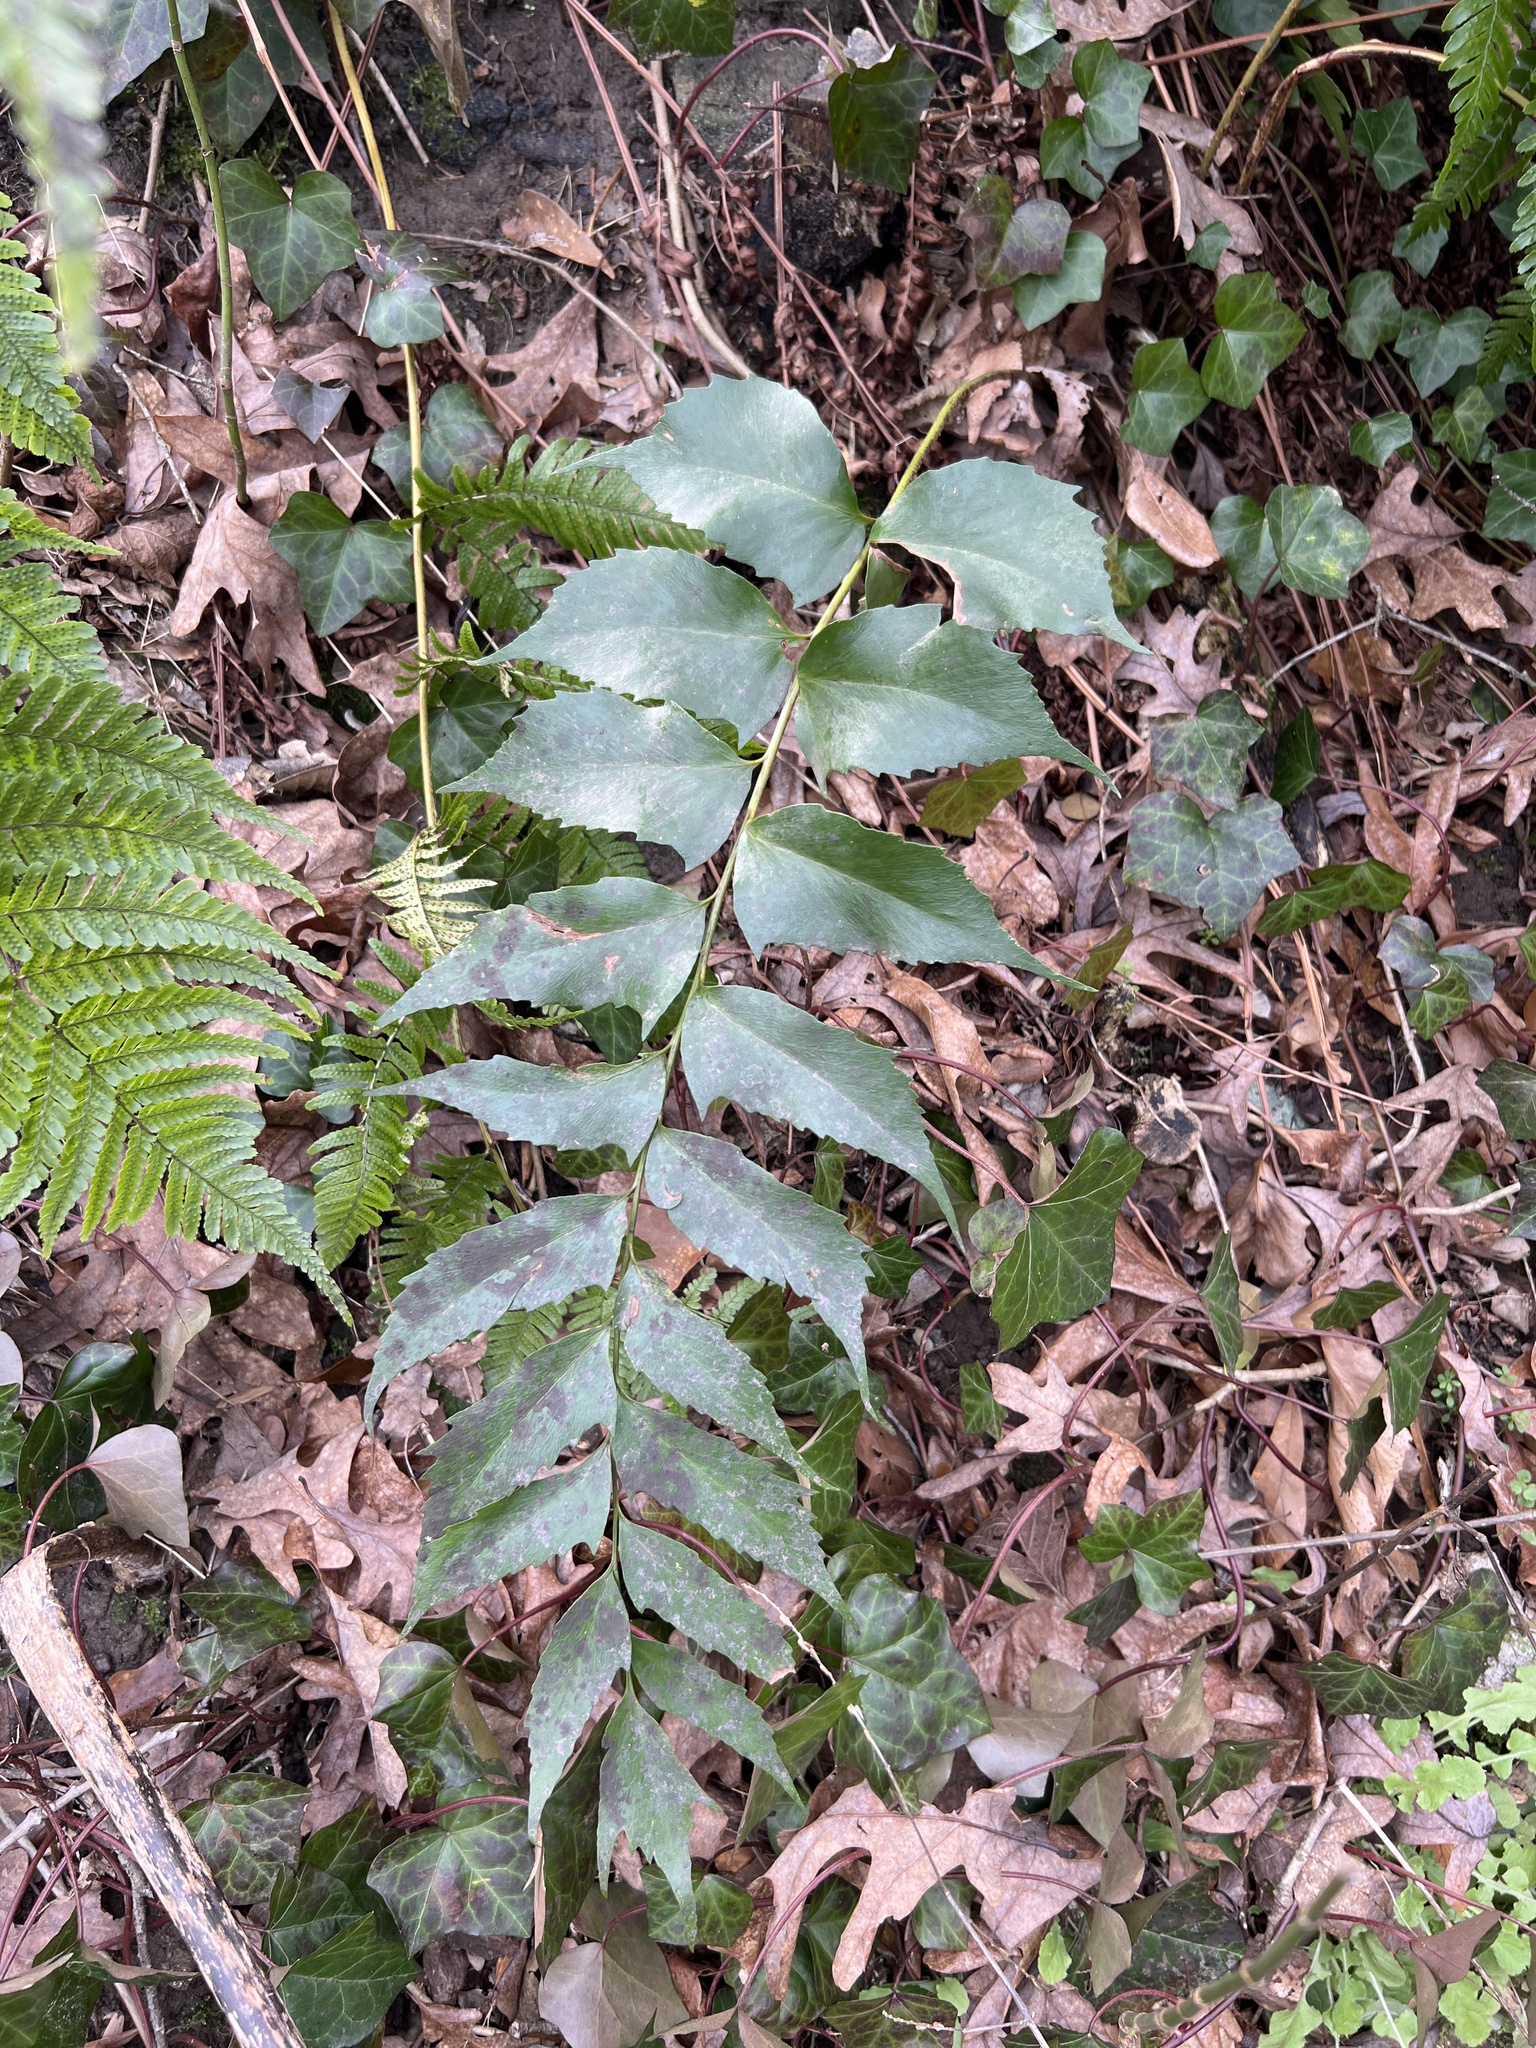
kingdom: Plantae
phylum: Tracheophyta
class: Polypodiopsida
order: Polypodiales
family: Dryopteridaceae
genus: Cyrtomium
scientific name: Cyrtomium falcatum
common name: House holly-fern
